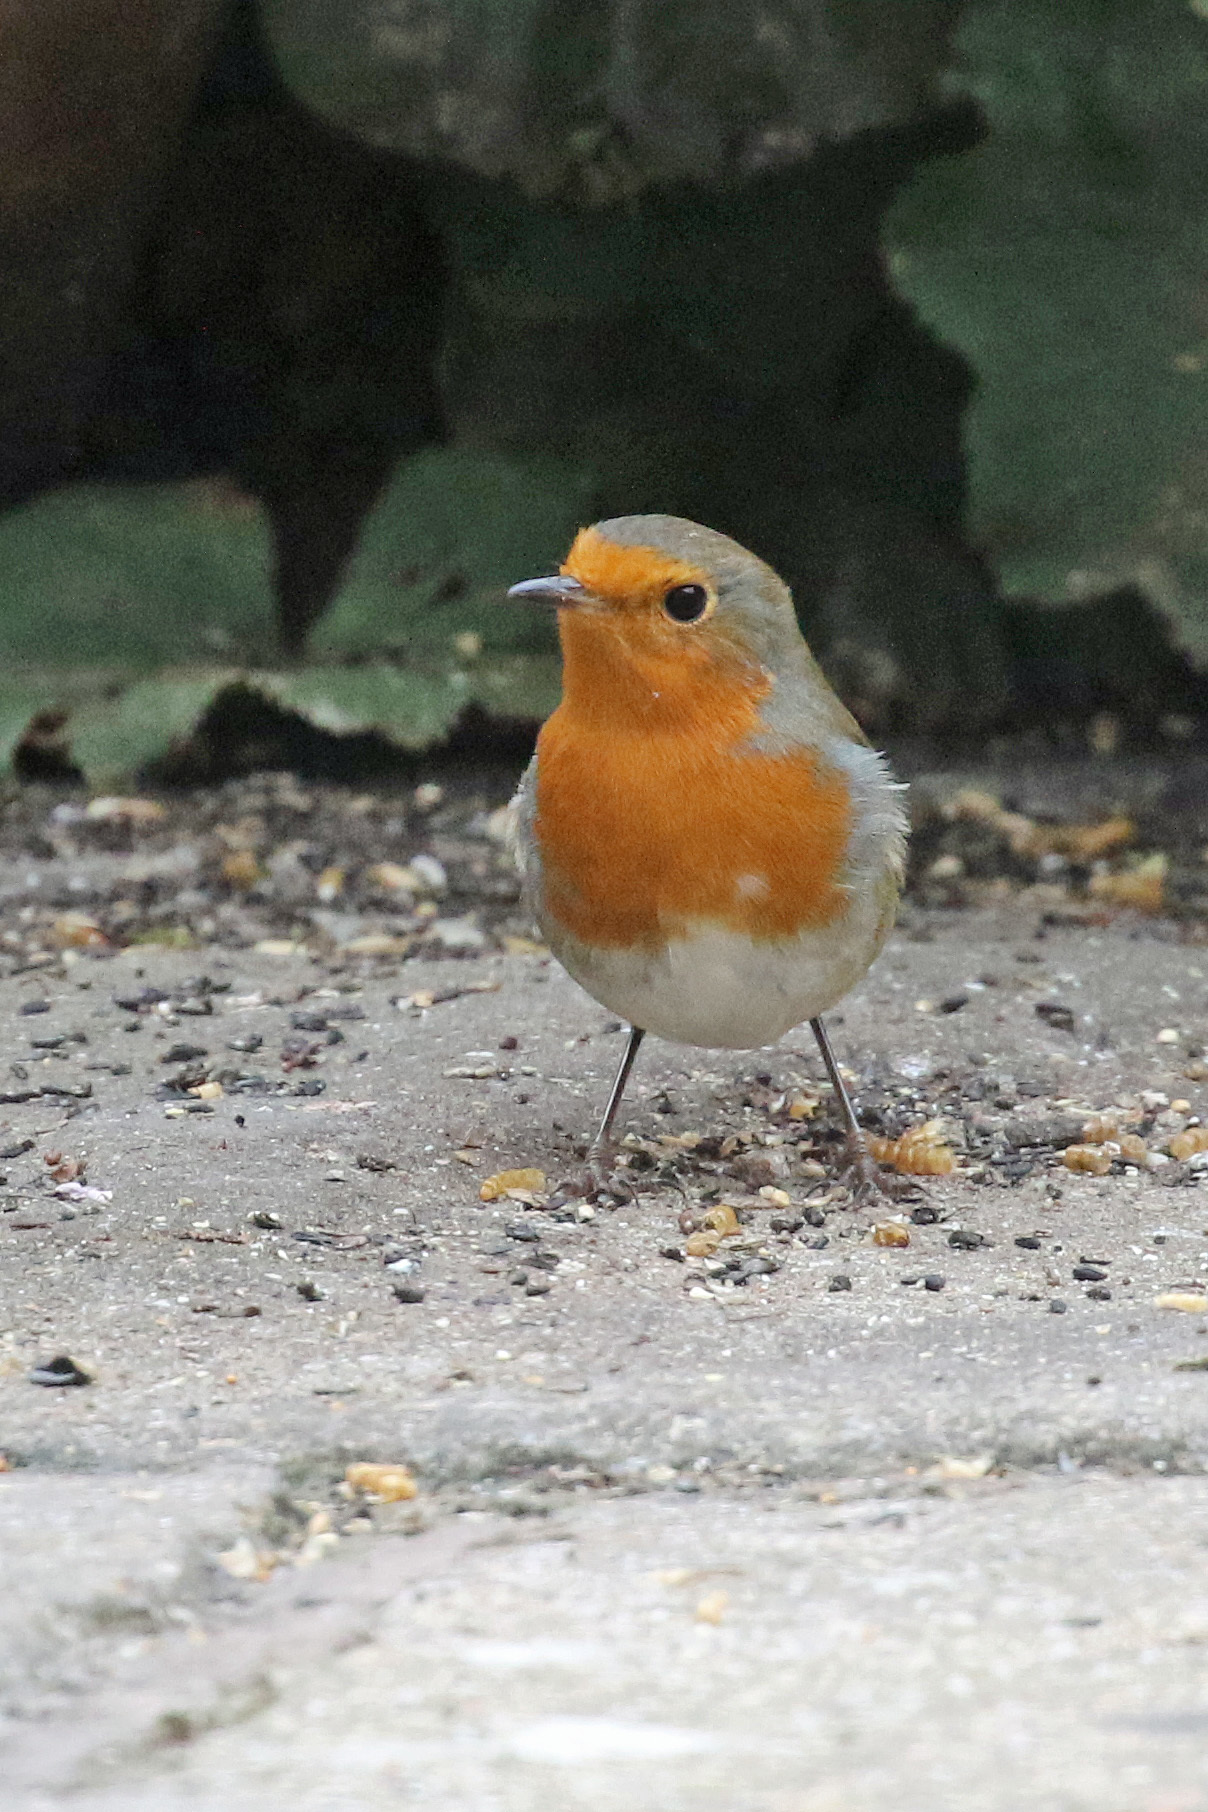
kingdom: Animalia
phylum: Chordata
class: Aves
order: Passeriformes
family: Muscicapidae
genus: Erithacus
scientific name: Erithacus rubecula
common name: European robin
